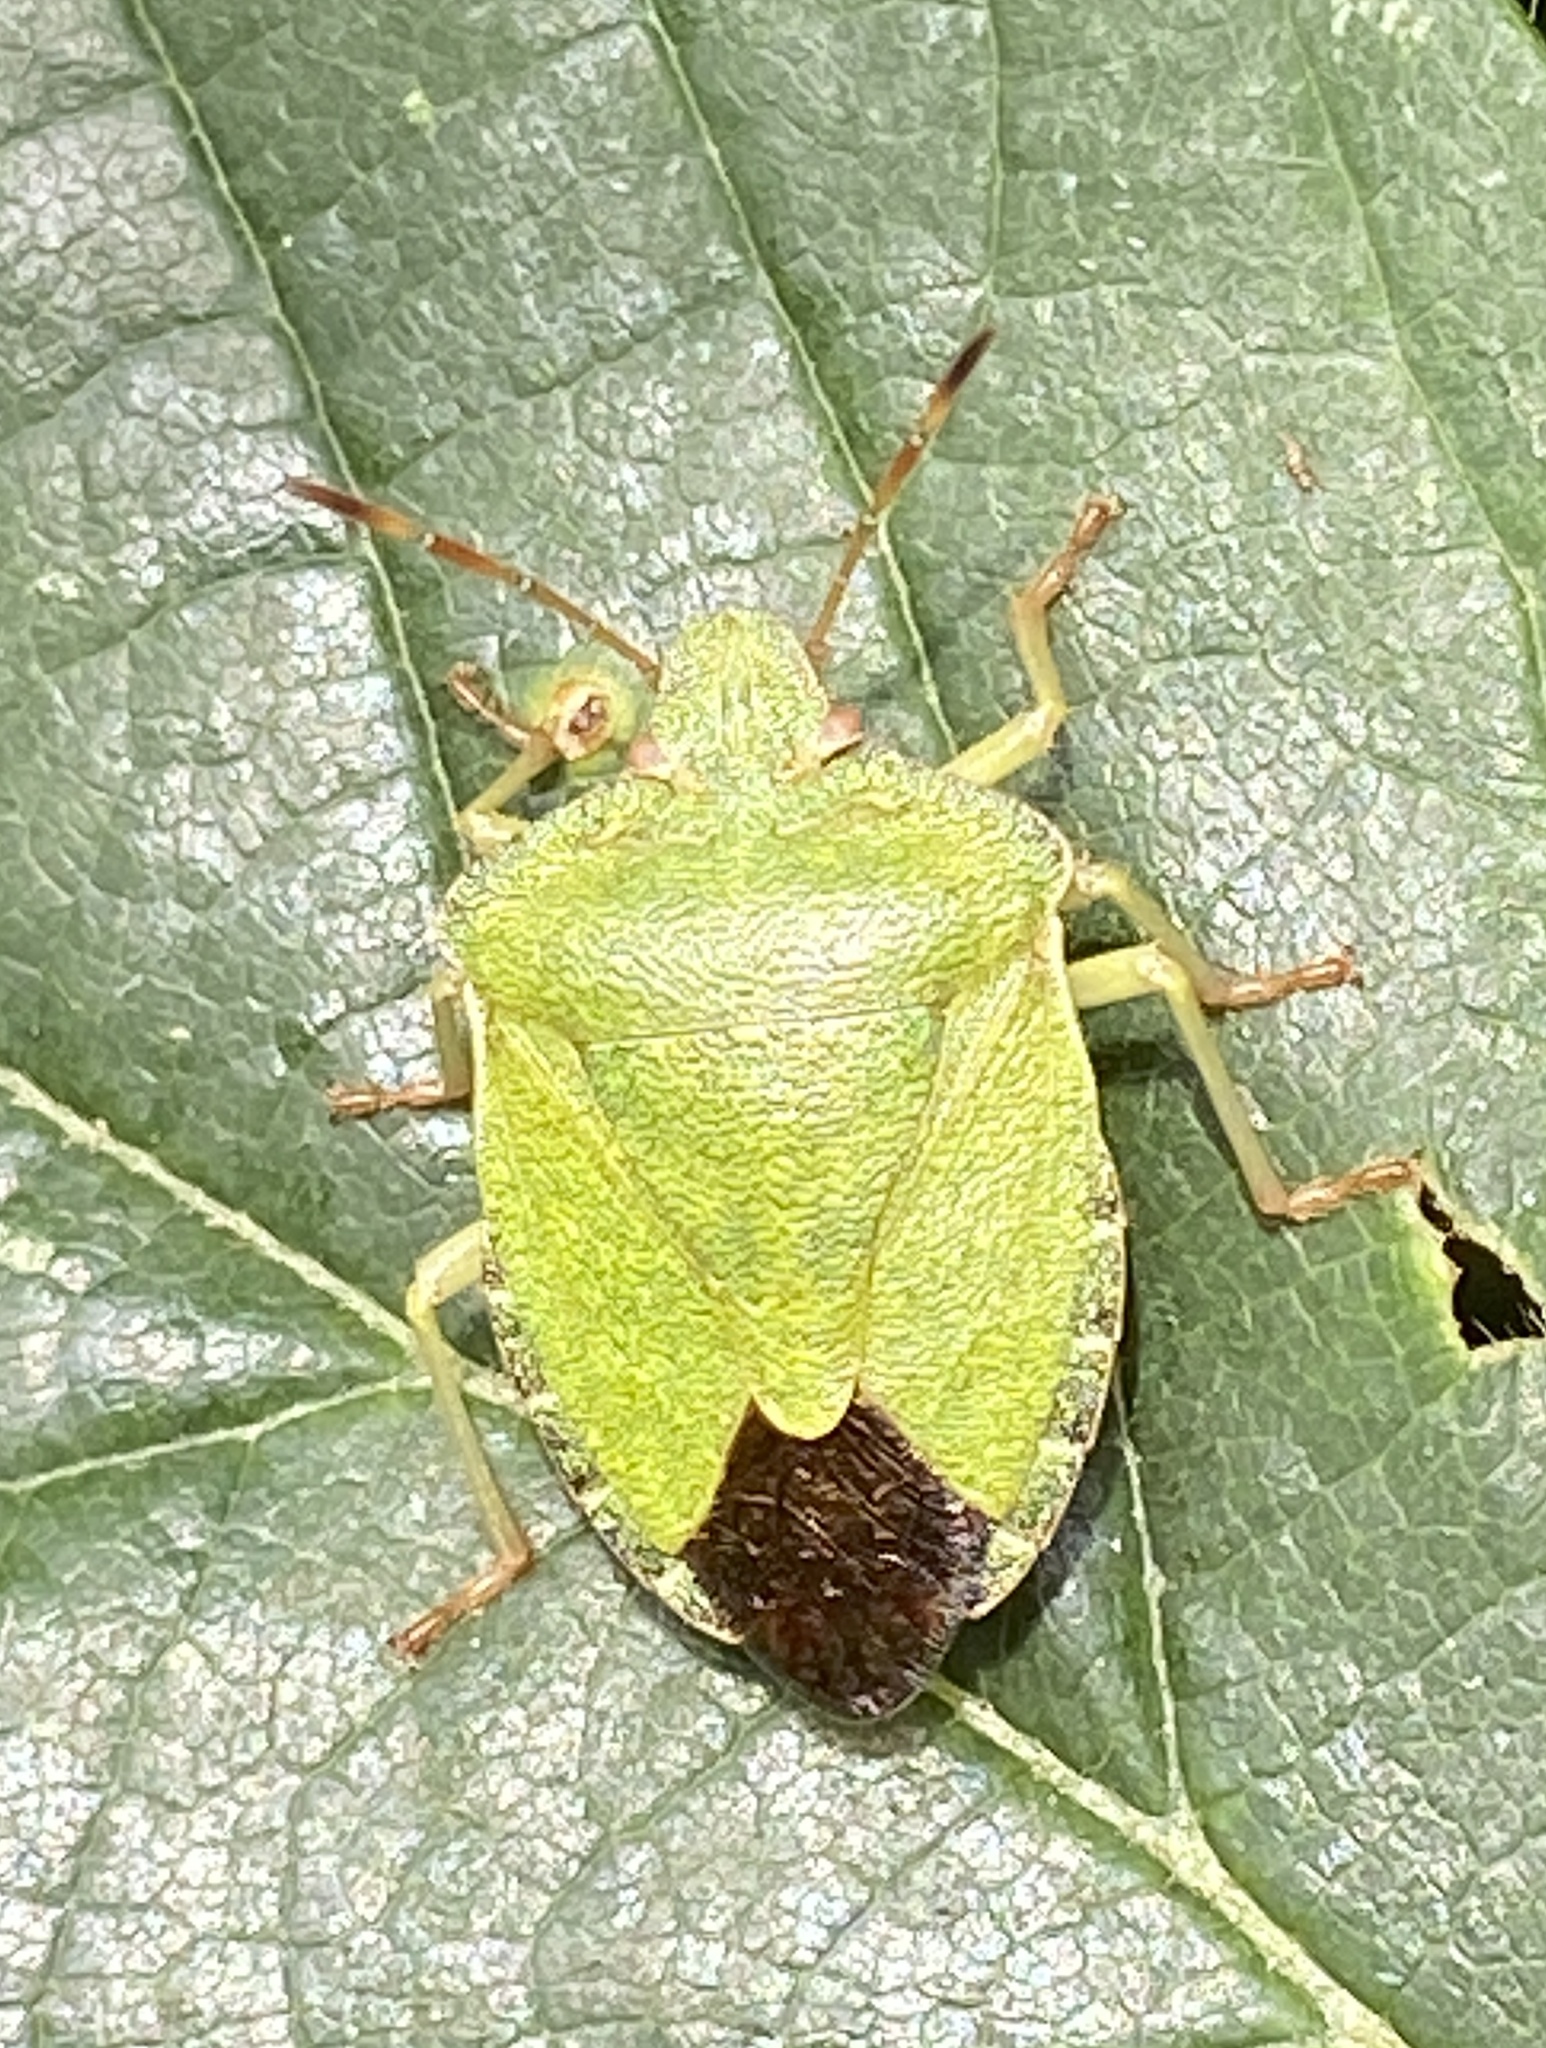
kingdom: Animalia
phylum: Arthropoda
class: Insecta
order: Hemiptera
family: Pentatomidae
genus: Palomena
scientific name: Palomena prasina
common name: Green shieldbug
